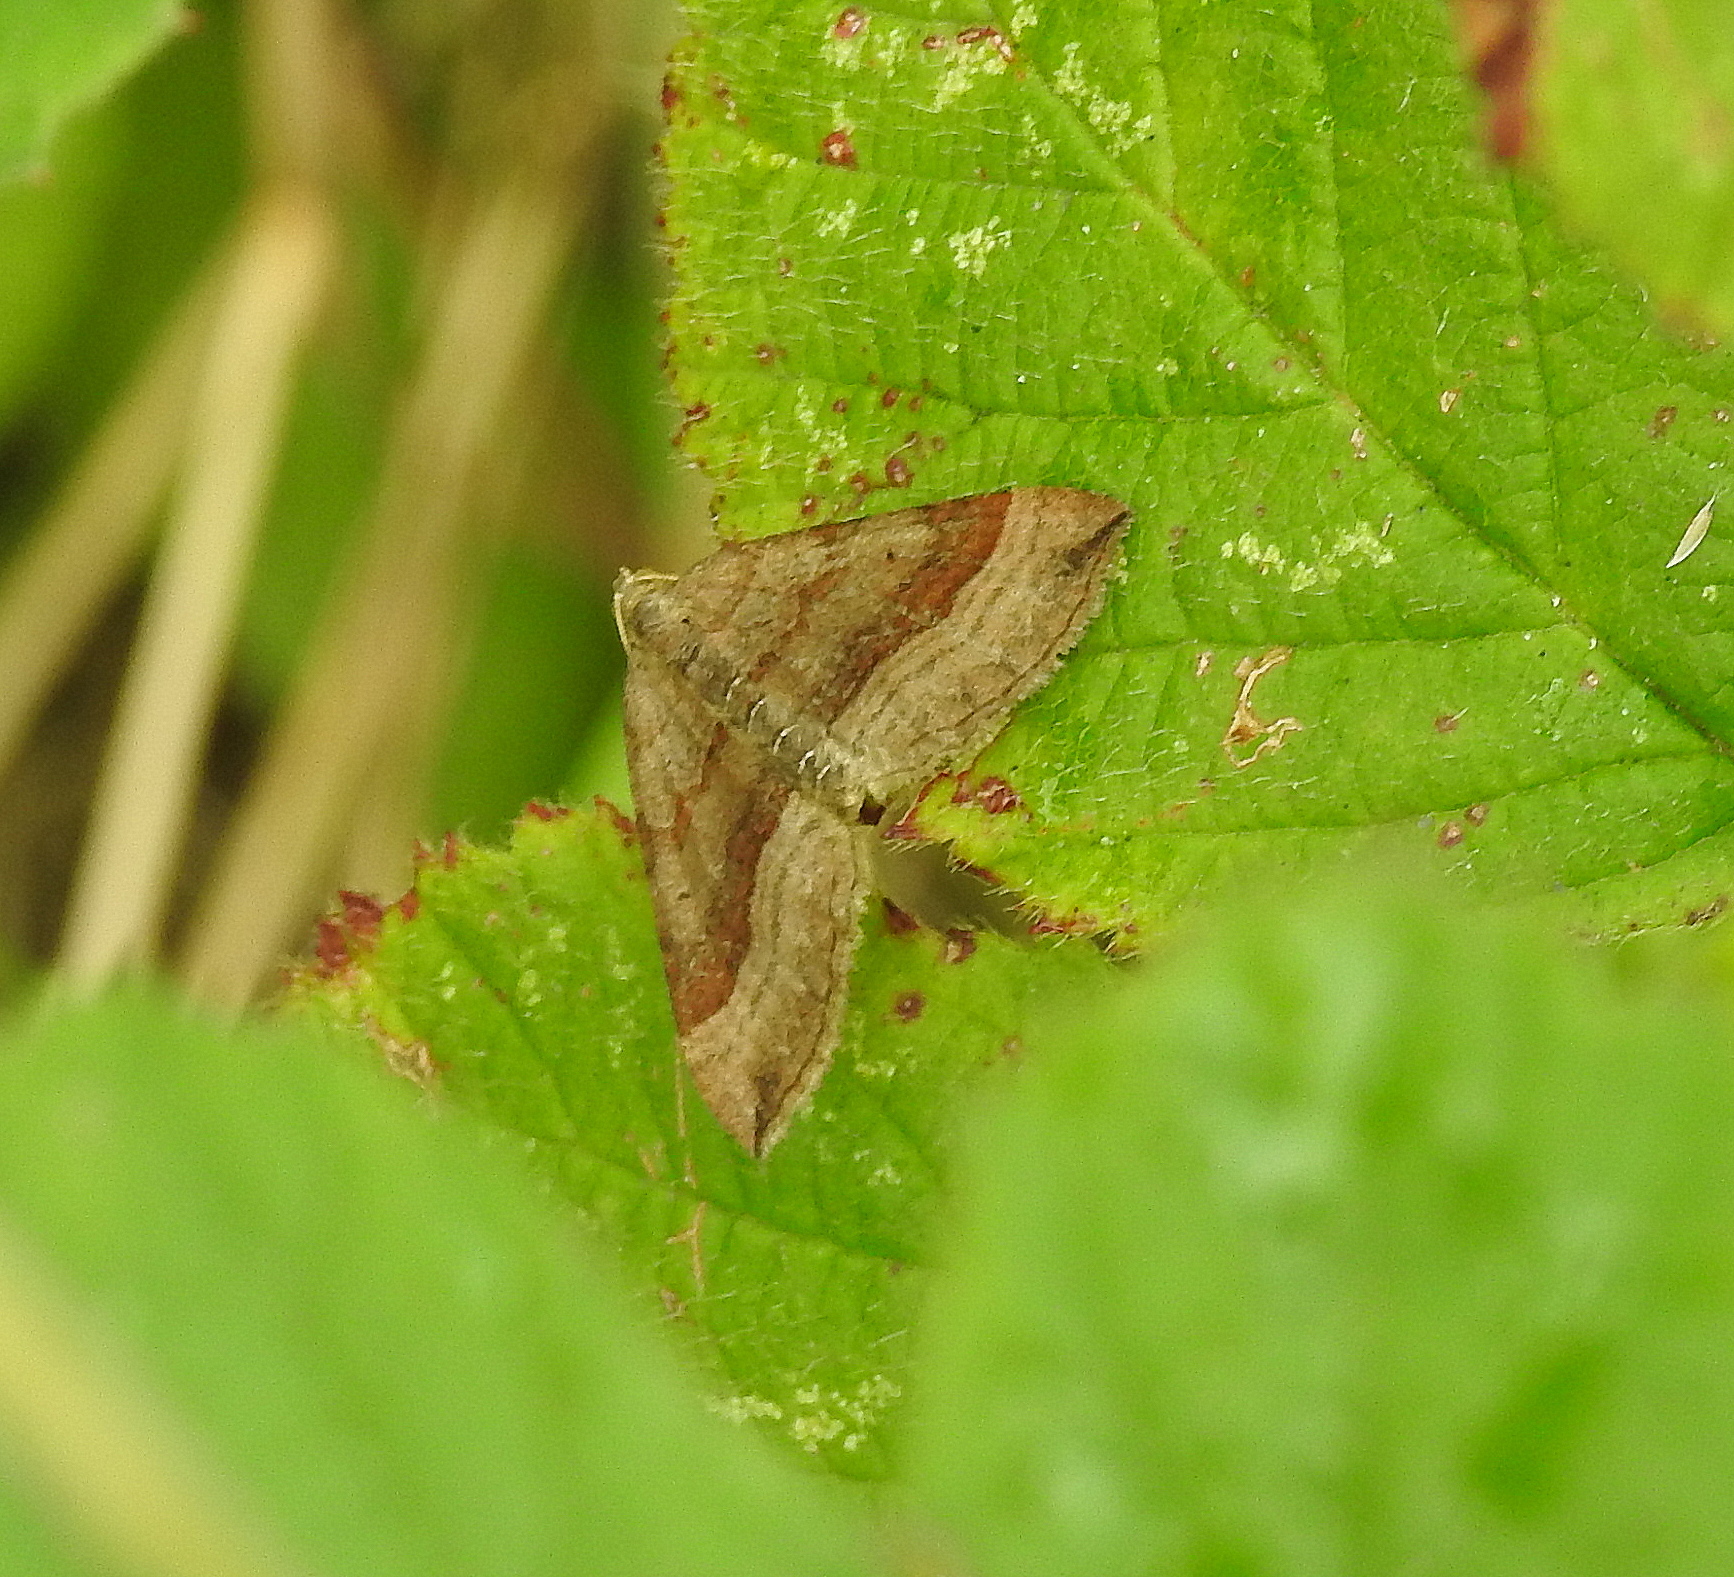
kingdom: Animalia
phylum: Arthropoda
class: Insecta
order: Lepidoptera
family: Geometridae
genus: Scotopteryx
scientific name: Scotopteryx chenopodiata
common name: Shaded broad-bar
